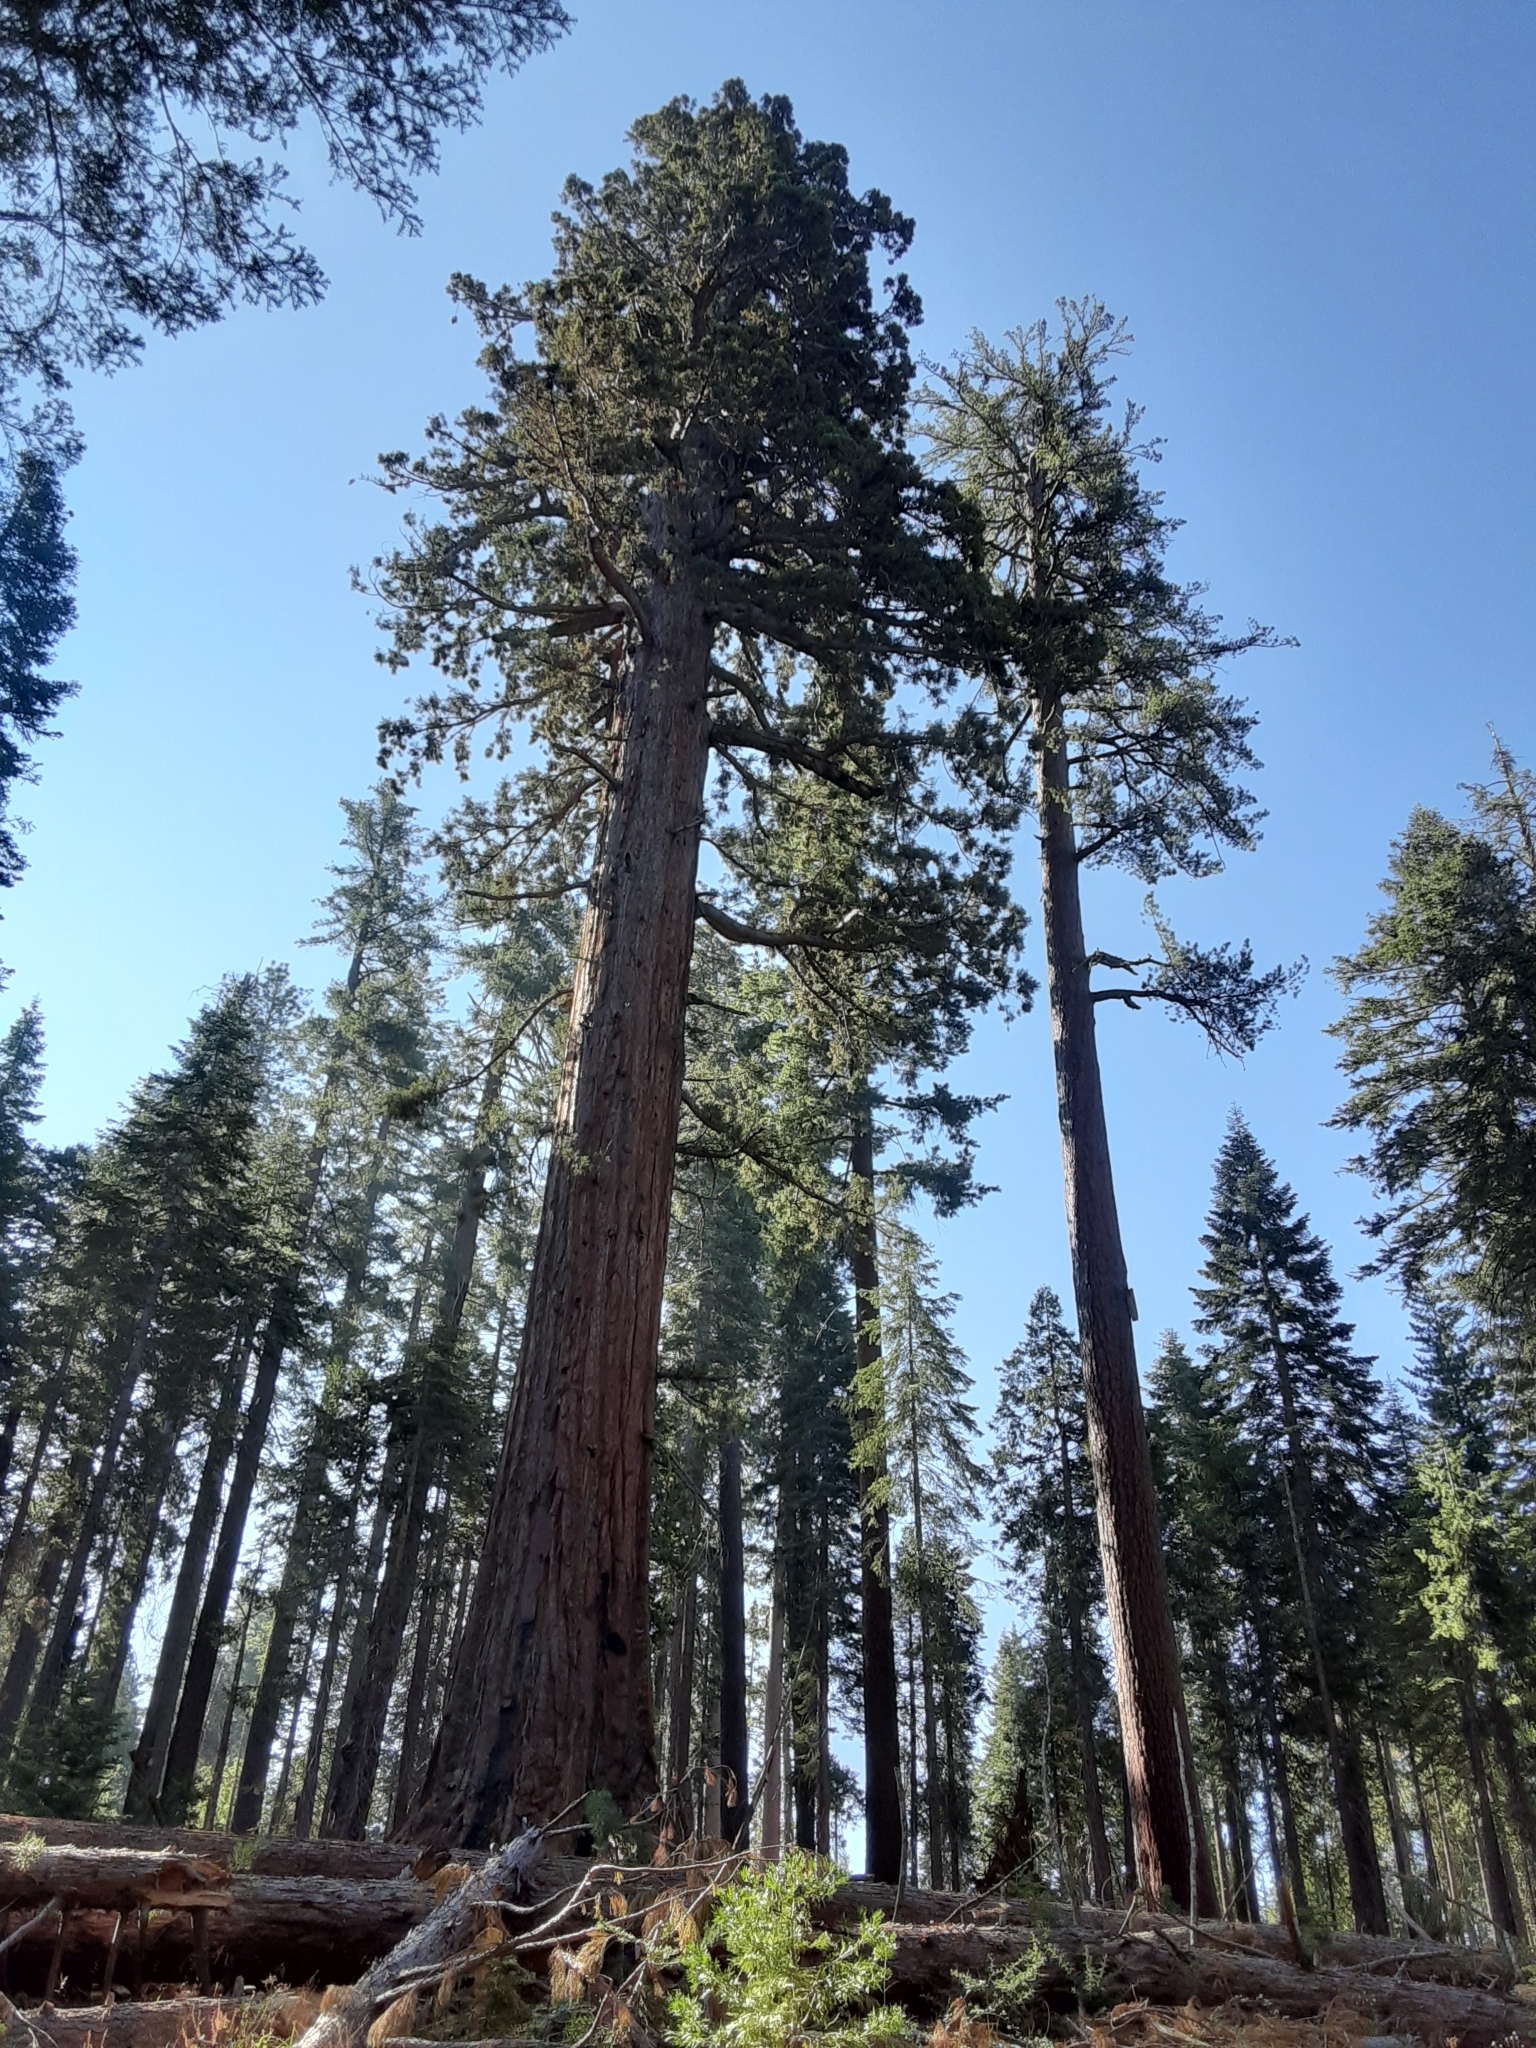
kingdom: Plantae
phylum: Tracheophyta
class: Pinopsida
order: Pinales
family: Cupressaceae
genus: Sequoiadendron
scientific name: Sequoiadendron giganteum
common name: Wellingtonia
